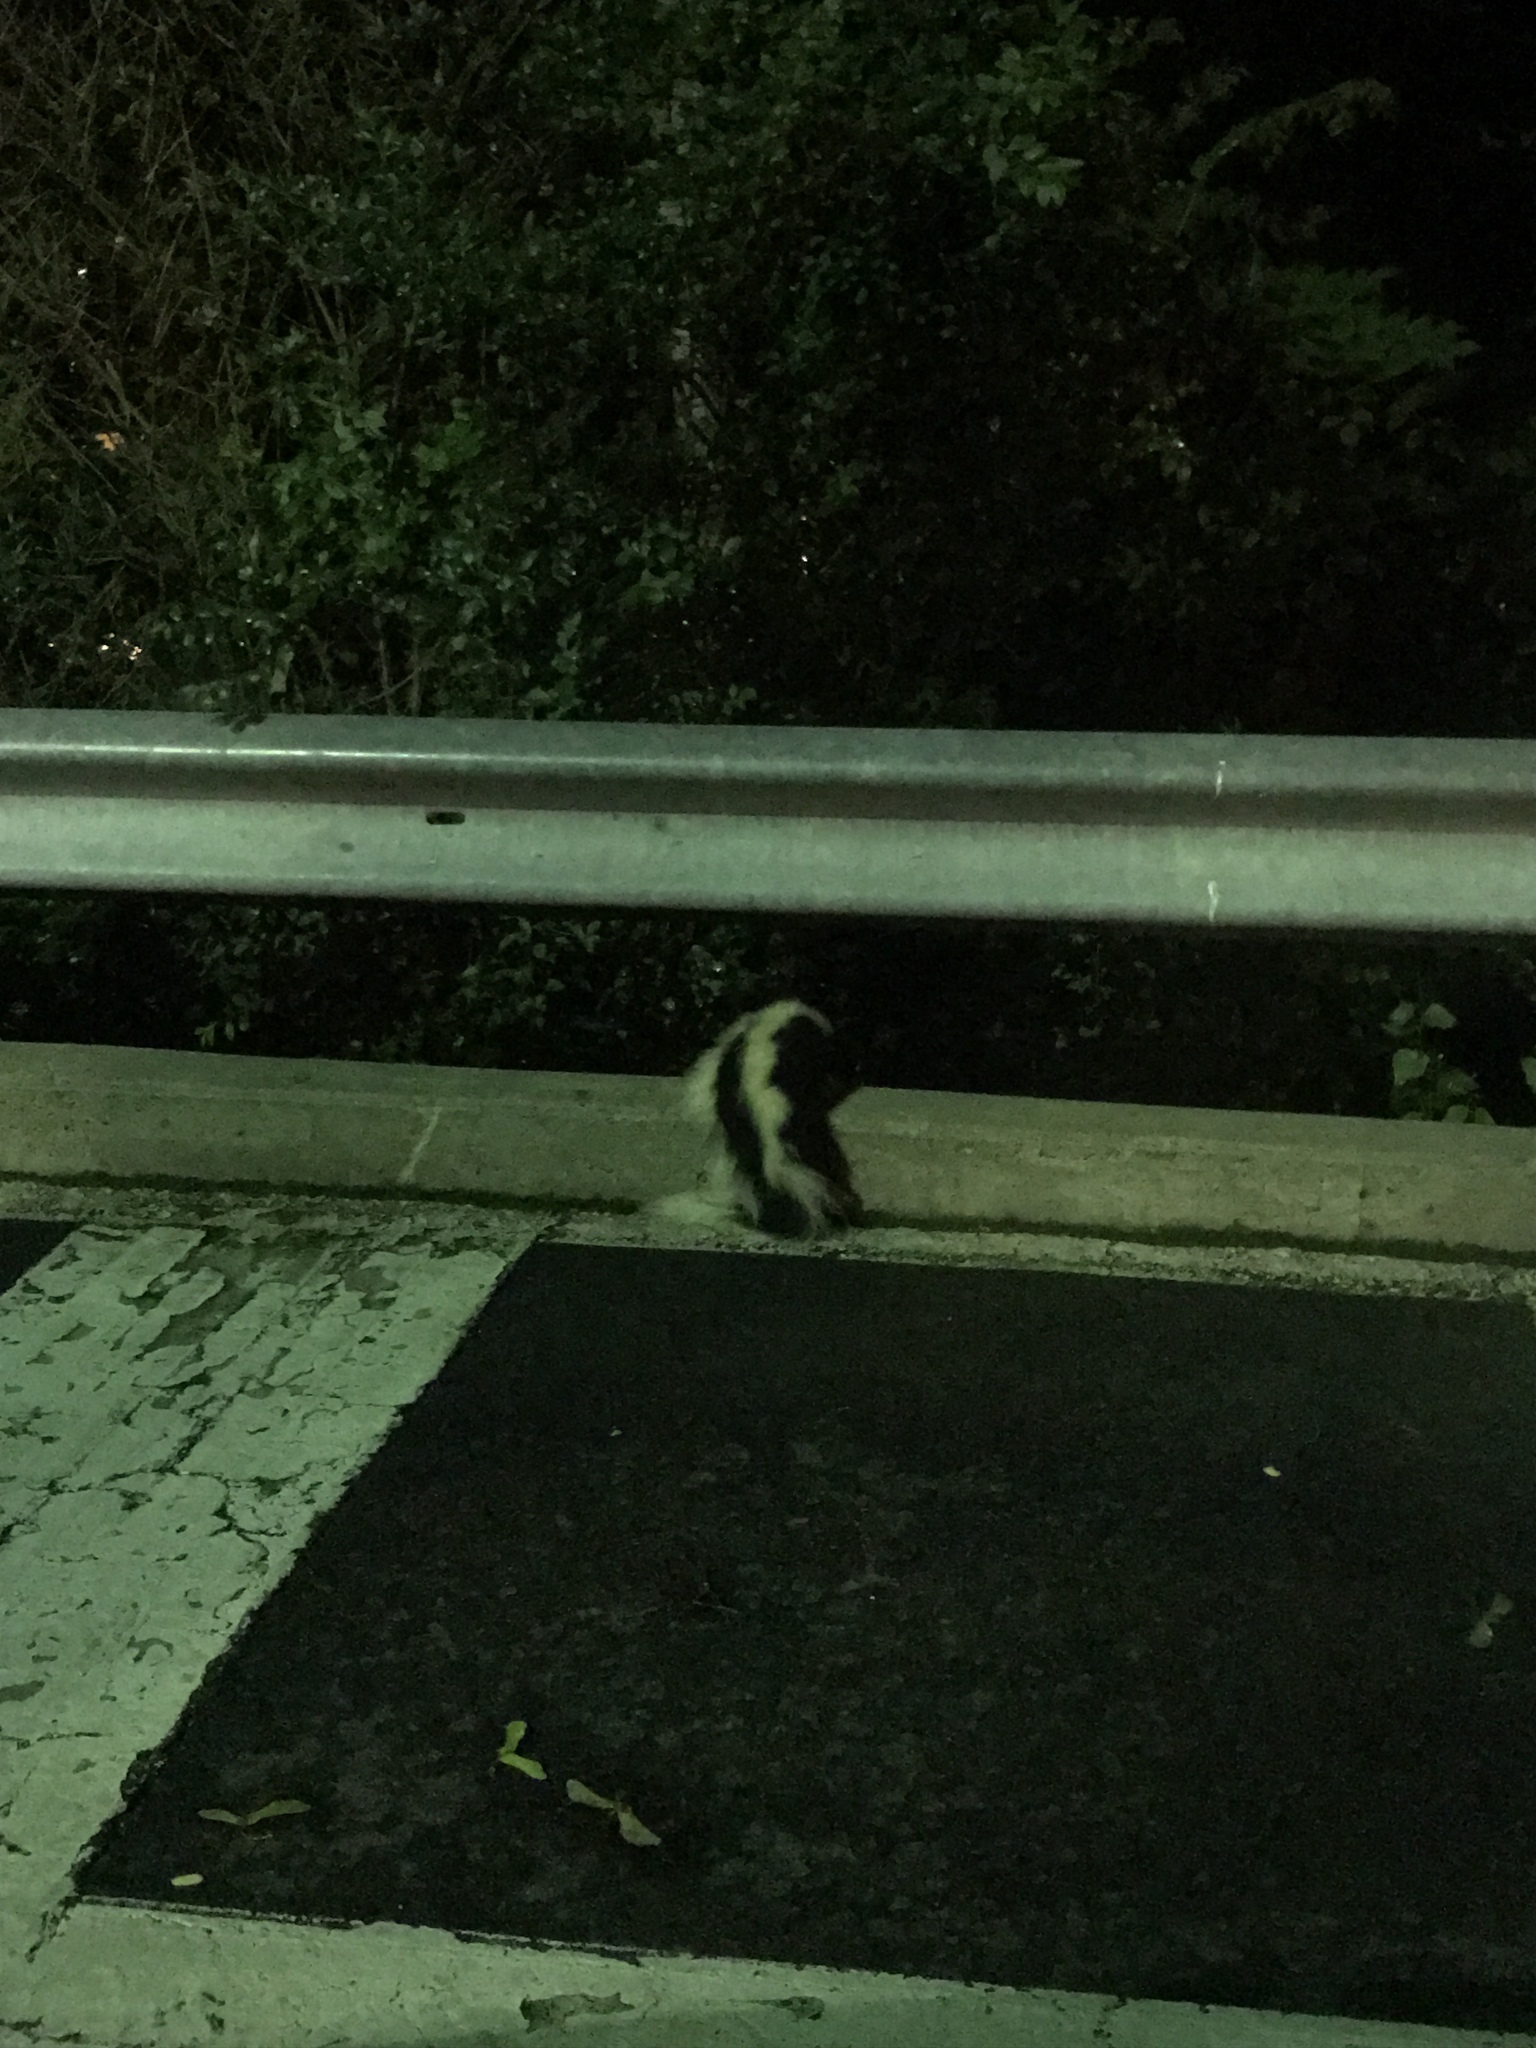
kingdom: Animalia
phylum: Chordata
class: Mammalia
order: Carnivora
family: Mephitidae
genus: Mephitis
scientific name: Mephitis mephitis
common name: Striped skunk
